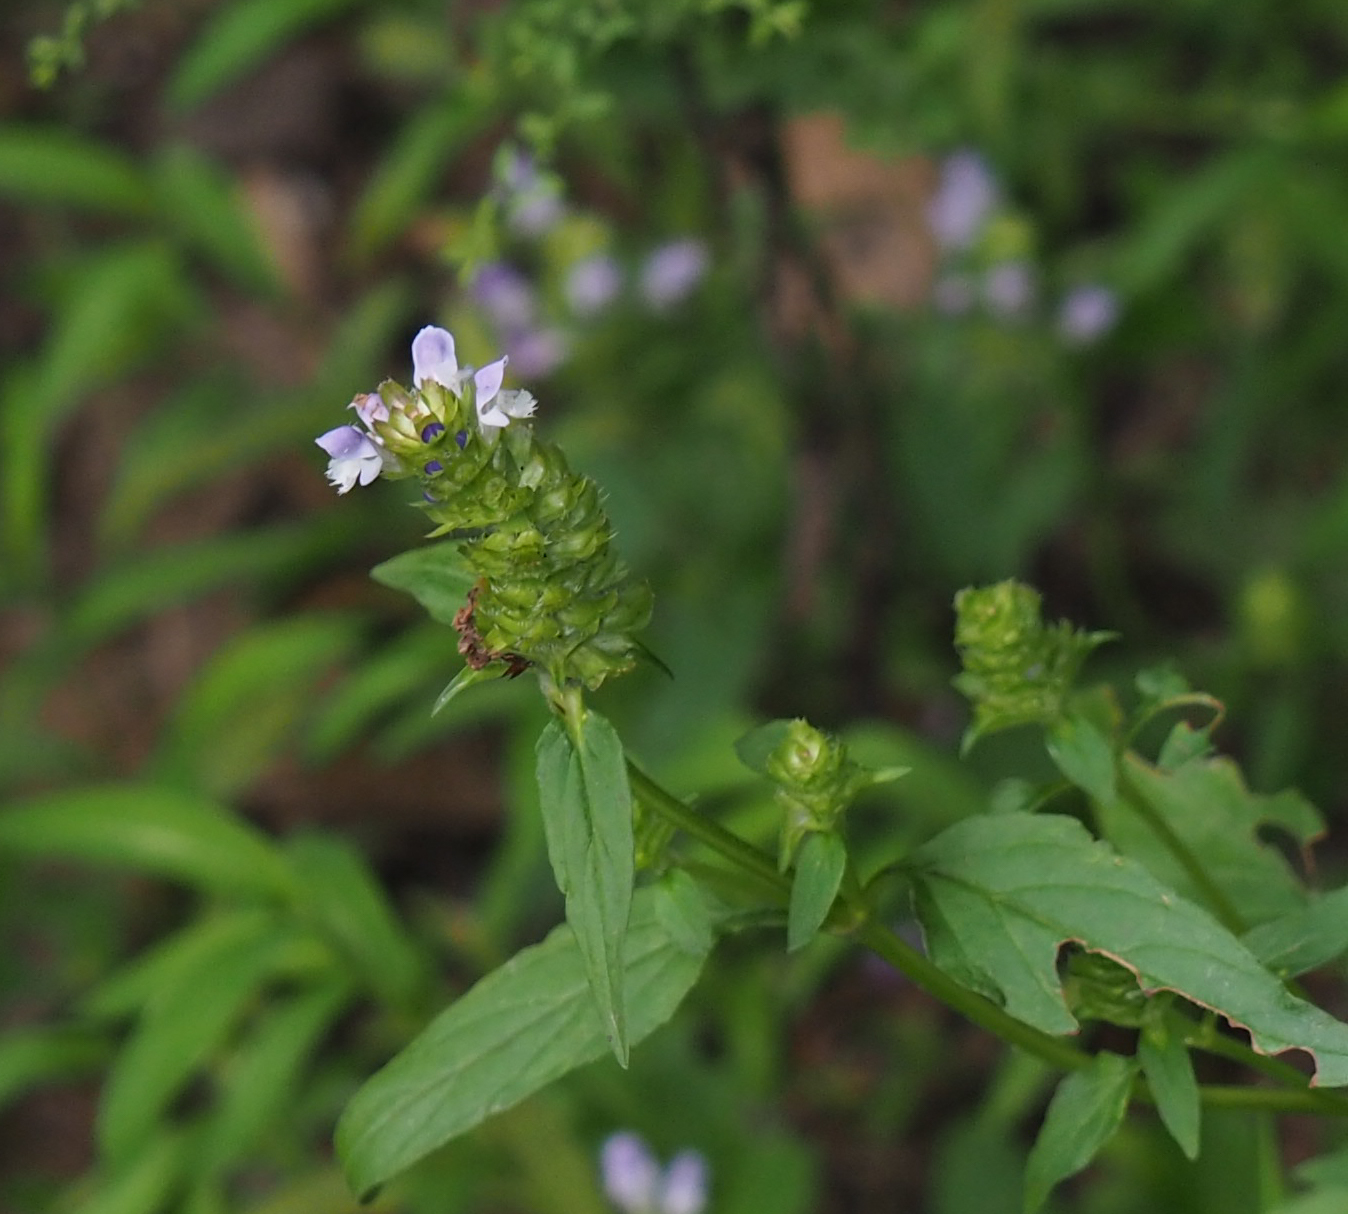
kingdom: Plantae
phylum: Tracheophyta
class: Magnoliopsida
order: Lamiales
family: Lamiaceae
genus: Prunella
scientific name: Prunella vulgaris
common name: Heal-all
